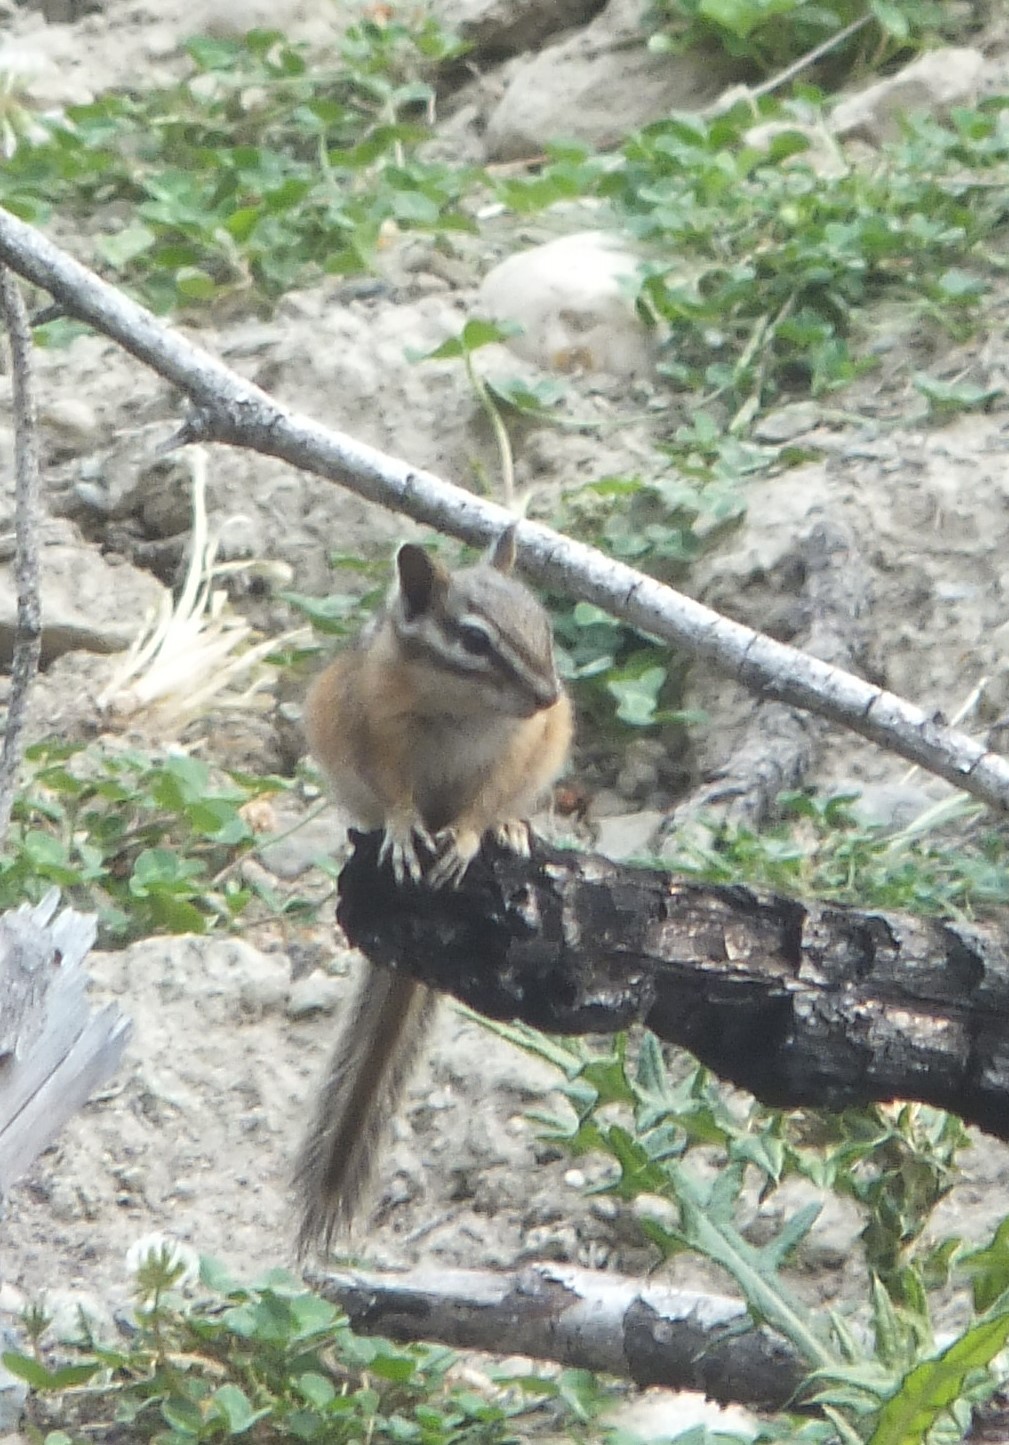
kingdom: Animalia
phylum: Chordata
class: Mammalia
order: Rodentia
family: Sciuridae
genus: Tamias
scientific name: Tamias amoenus
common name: Yellow-pine chipmunk
